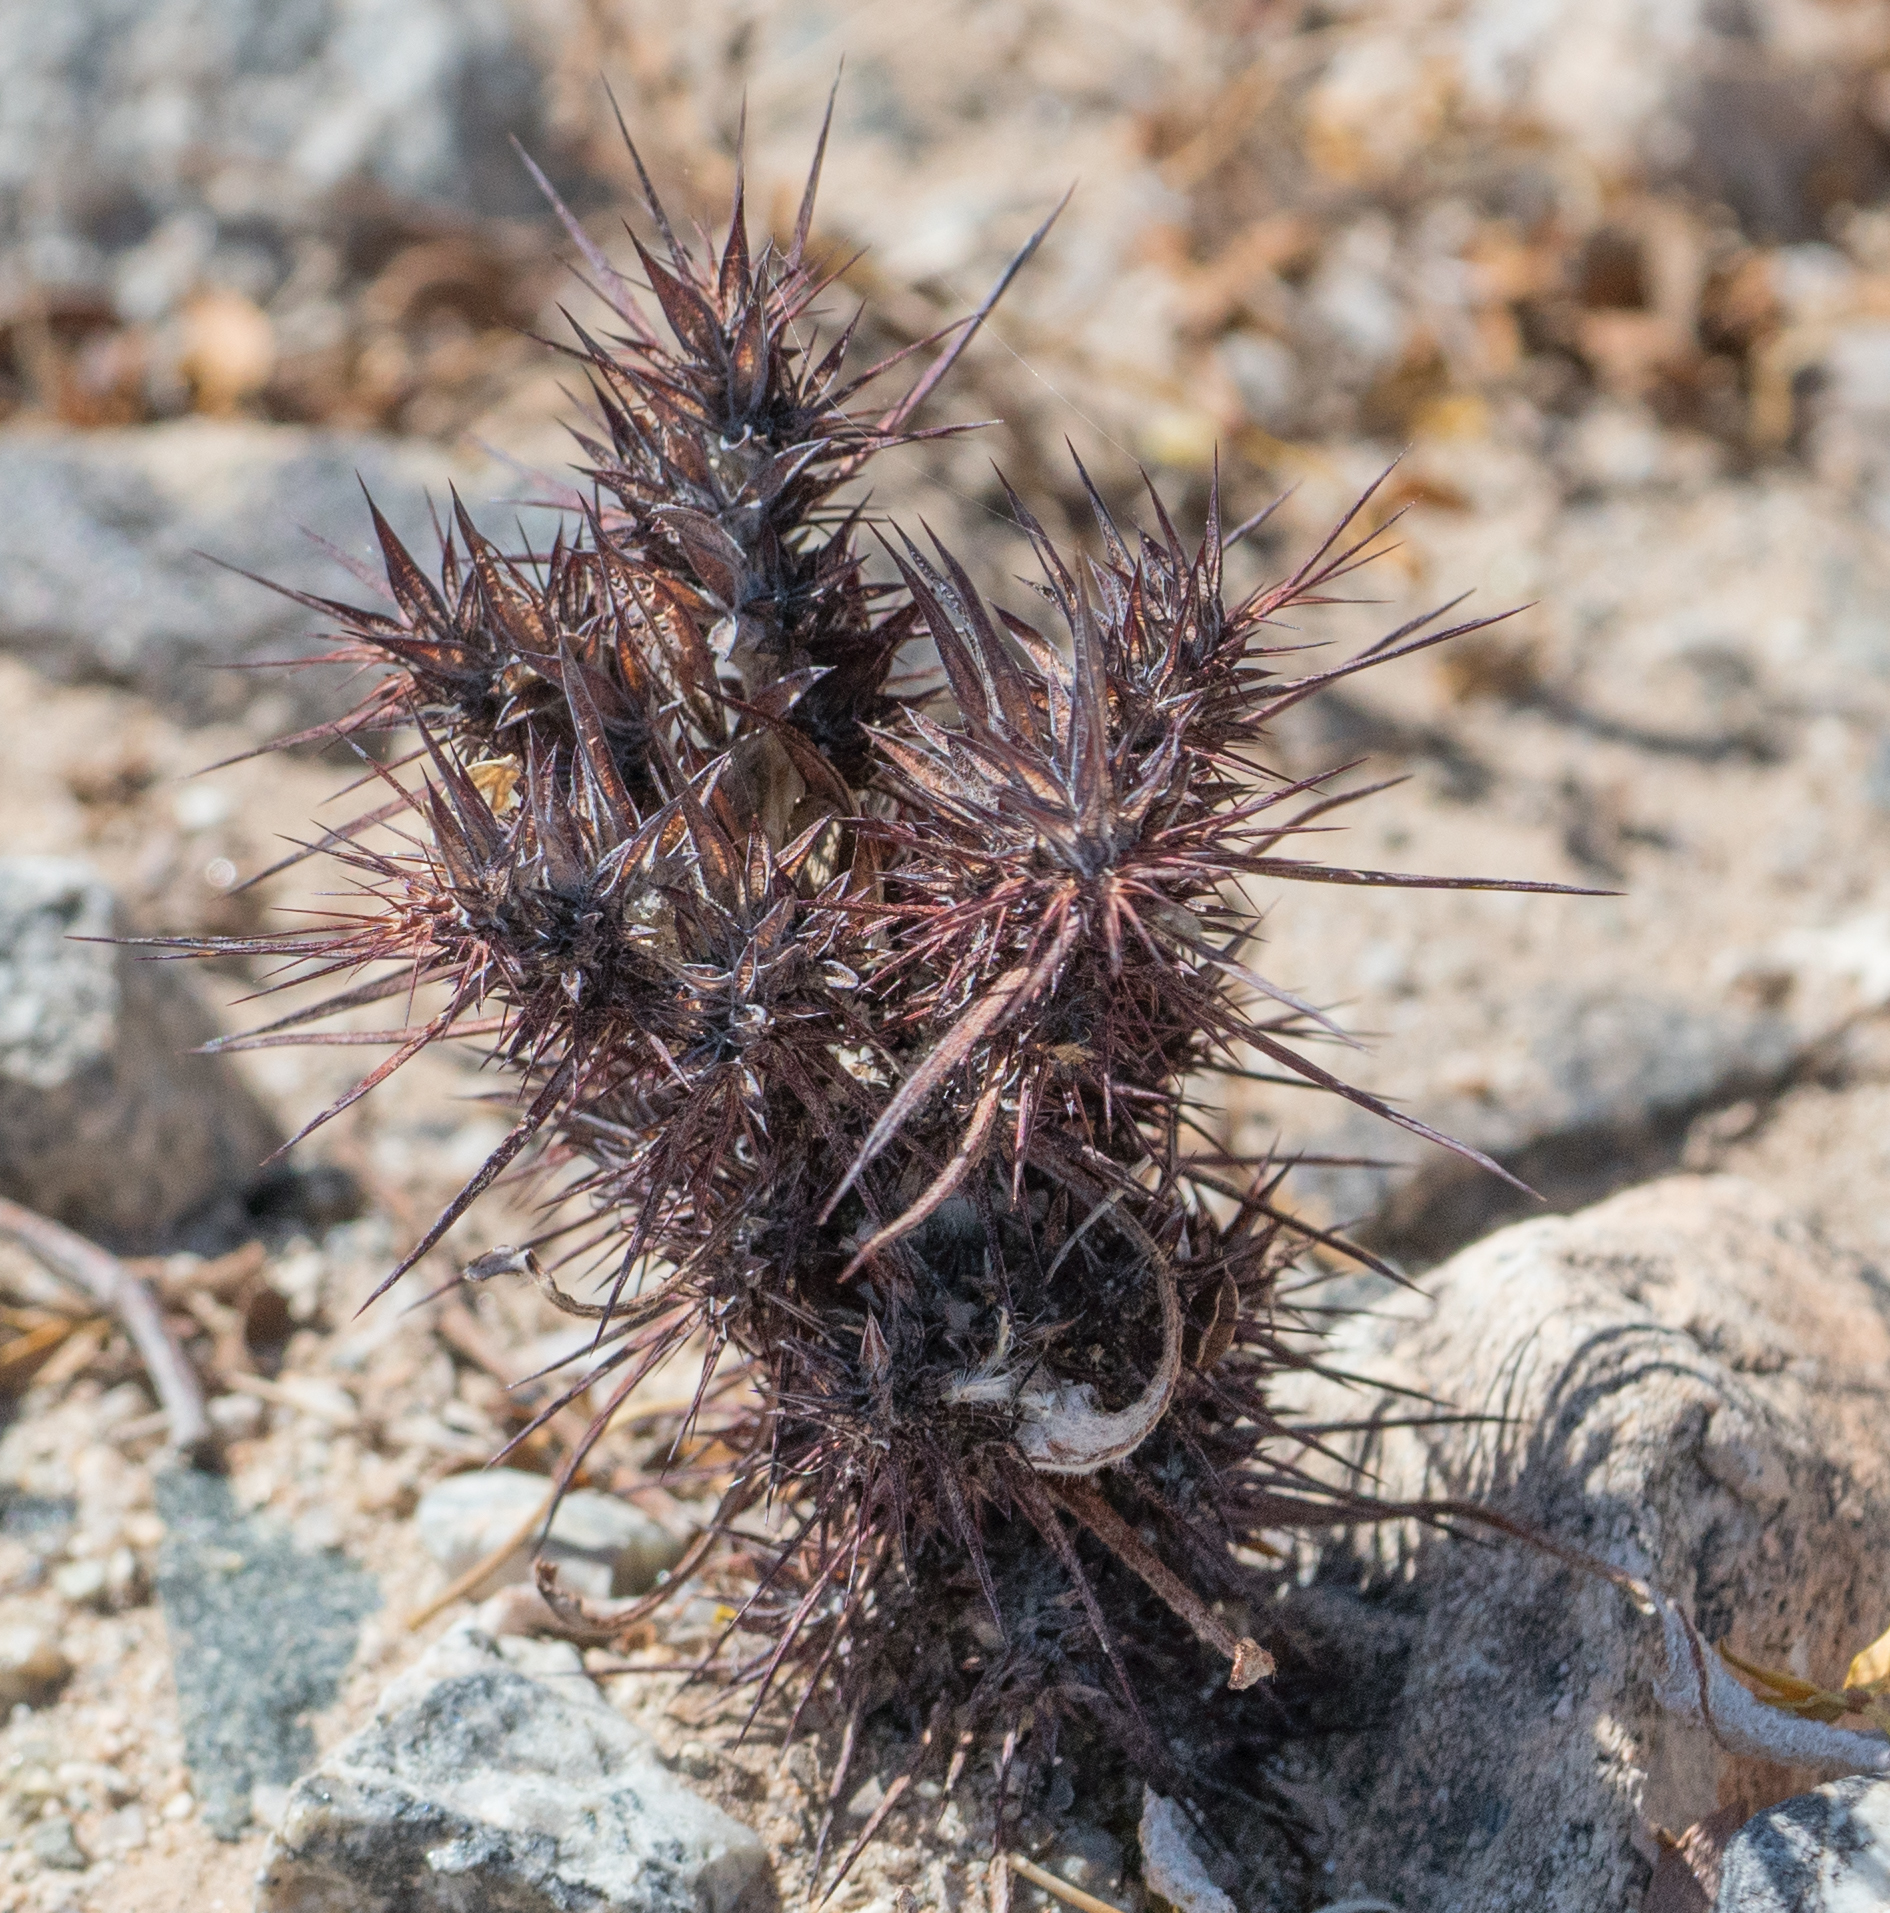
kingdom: Plantae
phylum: Tracheophyta
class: Magnoliopsida
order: Caryophyllales
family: Polygonaceae
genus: Chorizanthe
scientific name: Chorizanthe rigida
